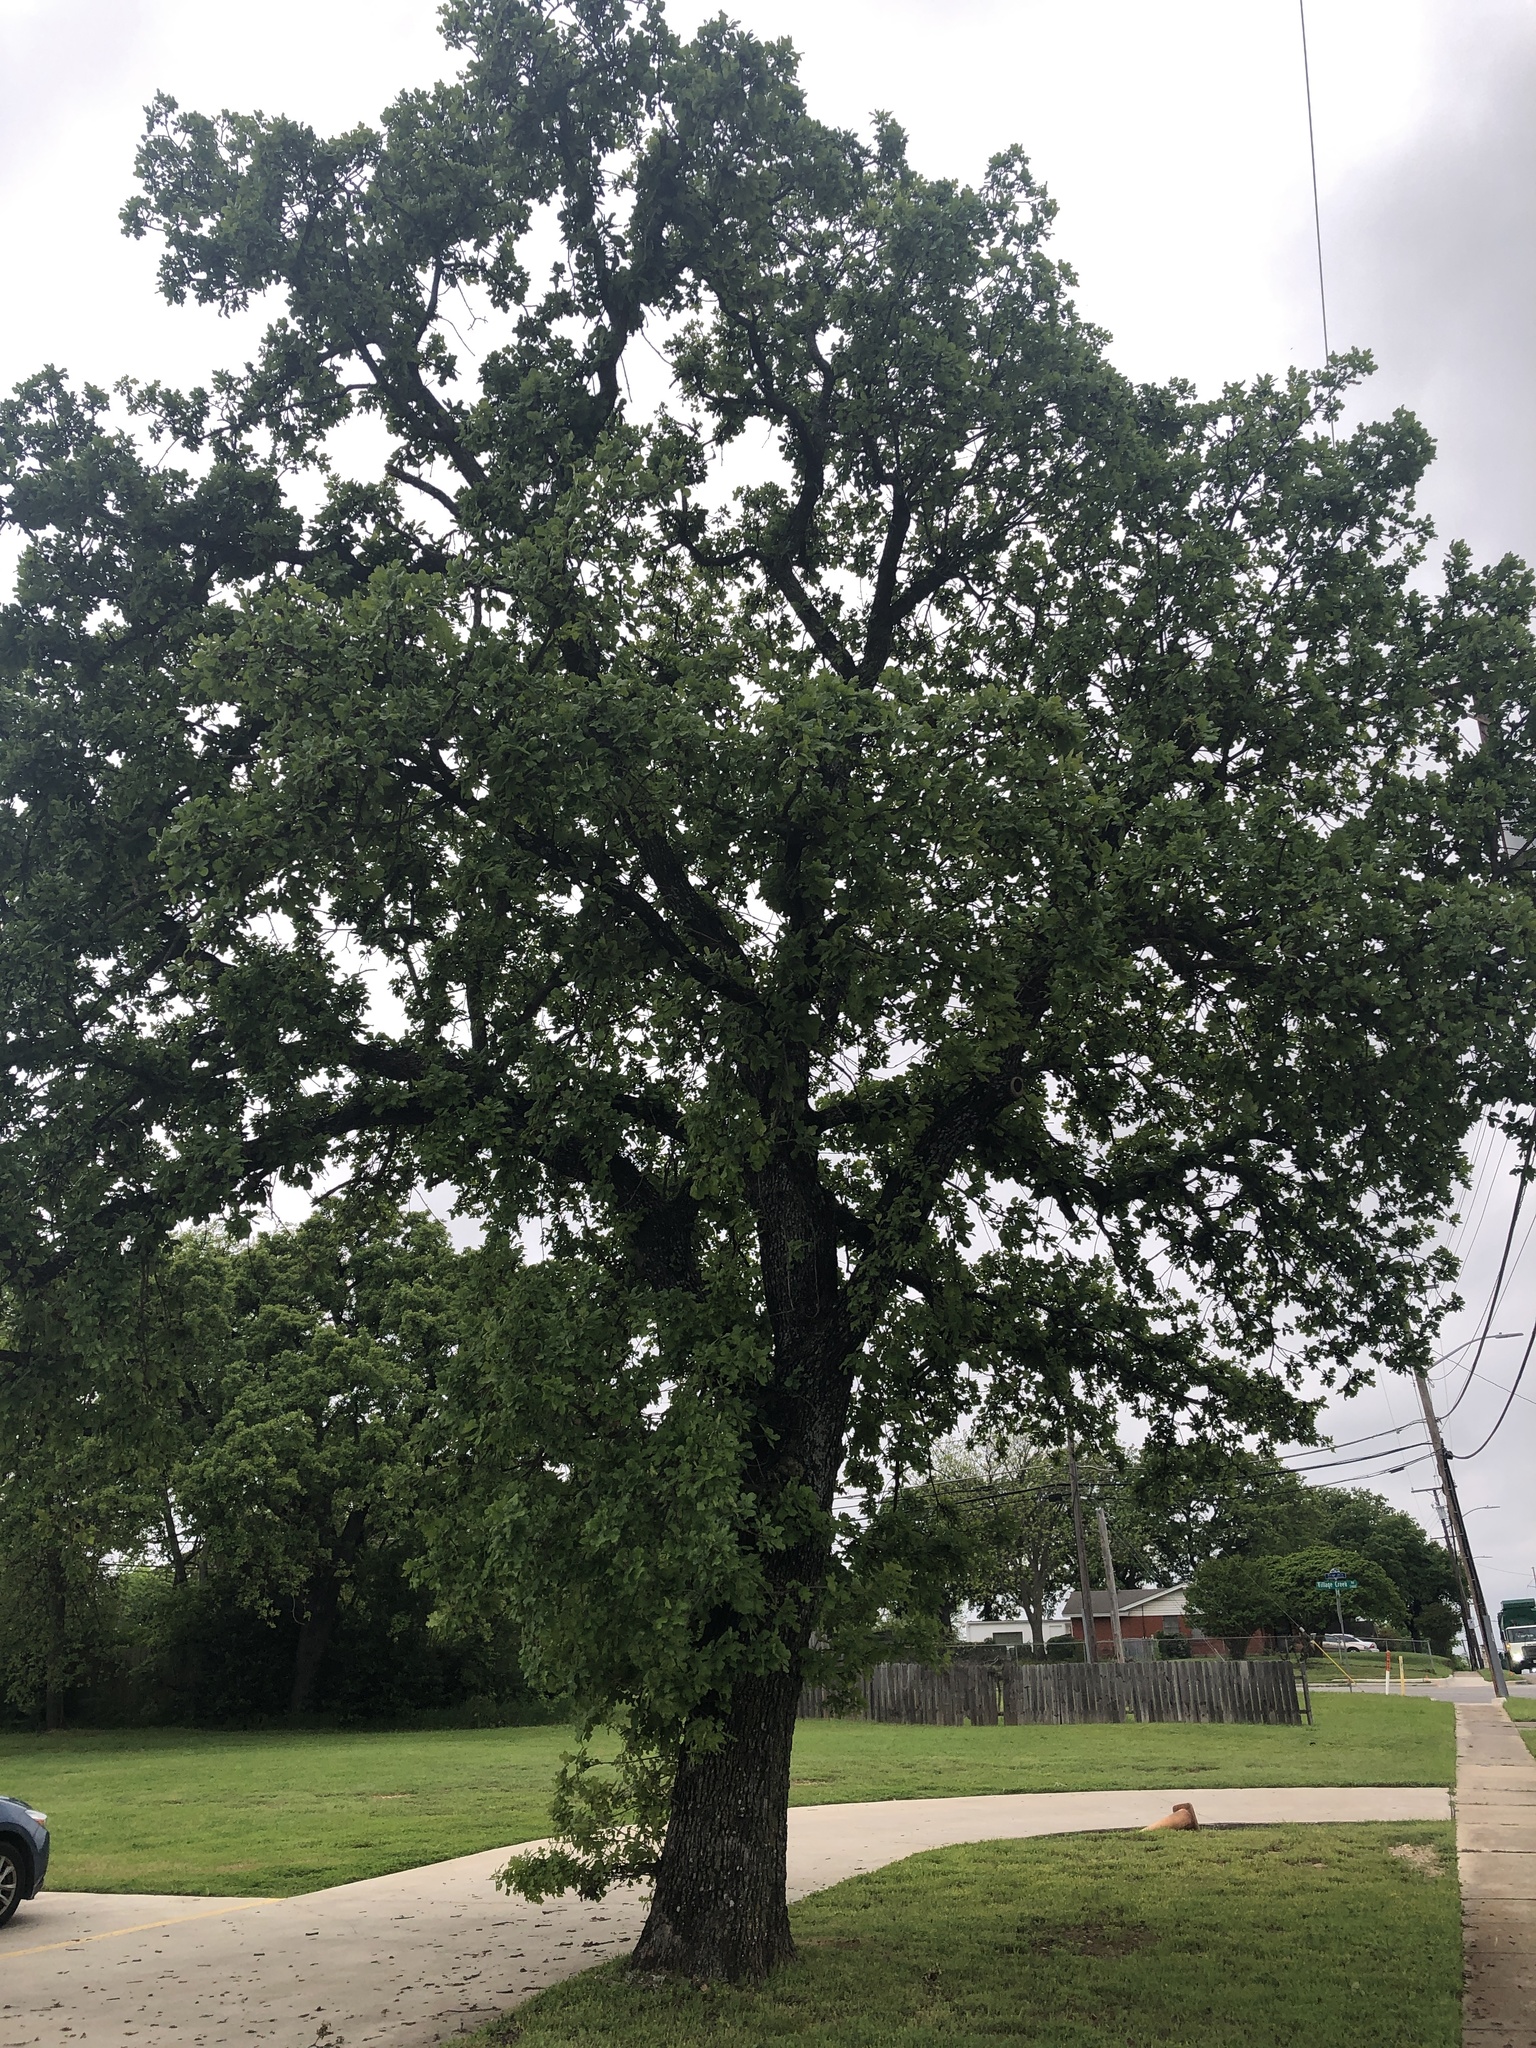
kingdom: Plantae
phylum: Tracheophyta
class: Magnoliopsida
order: Fagales
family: Fagaceae
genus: Quercus
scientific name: Quercus stellata
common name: Post oak
